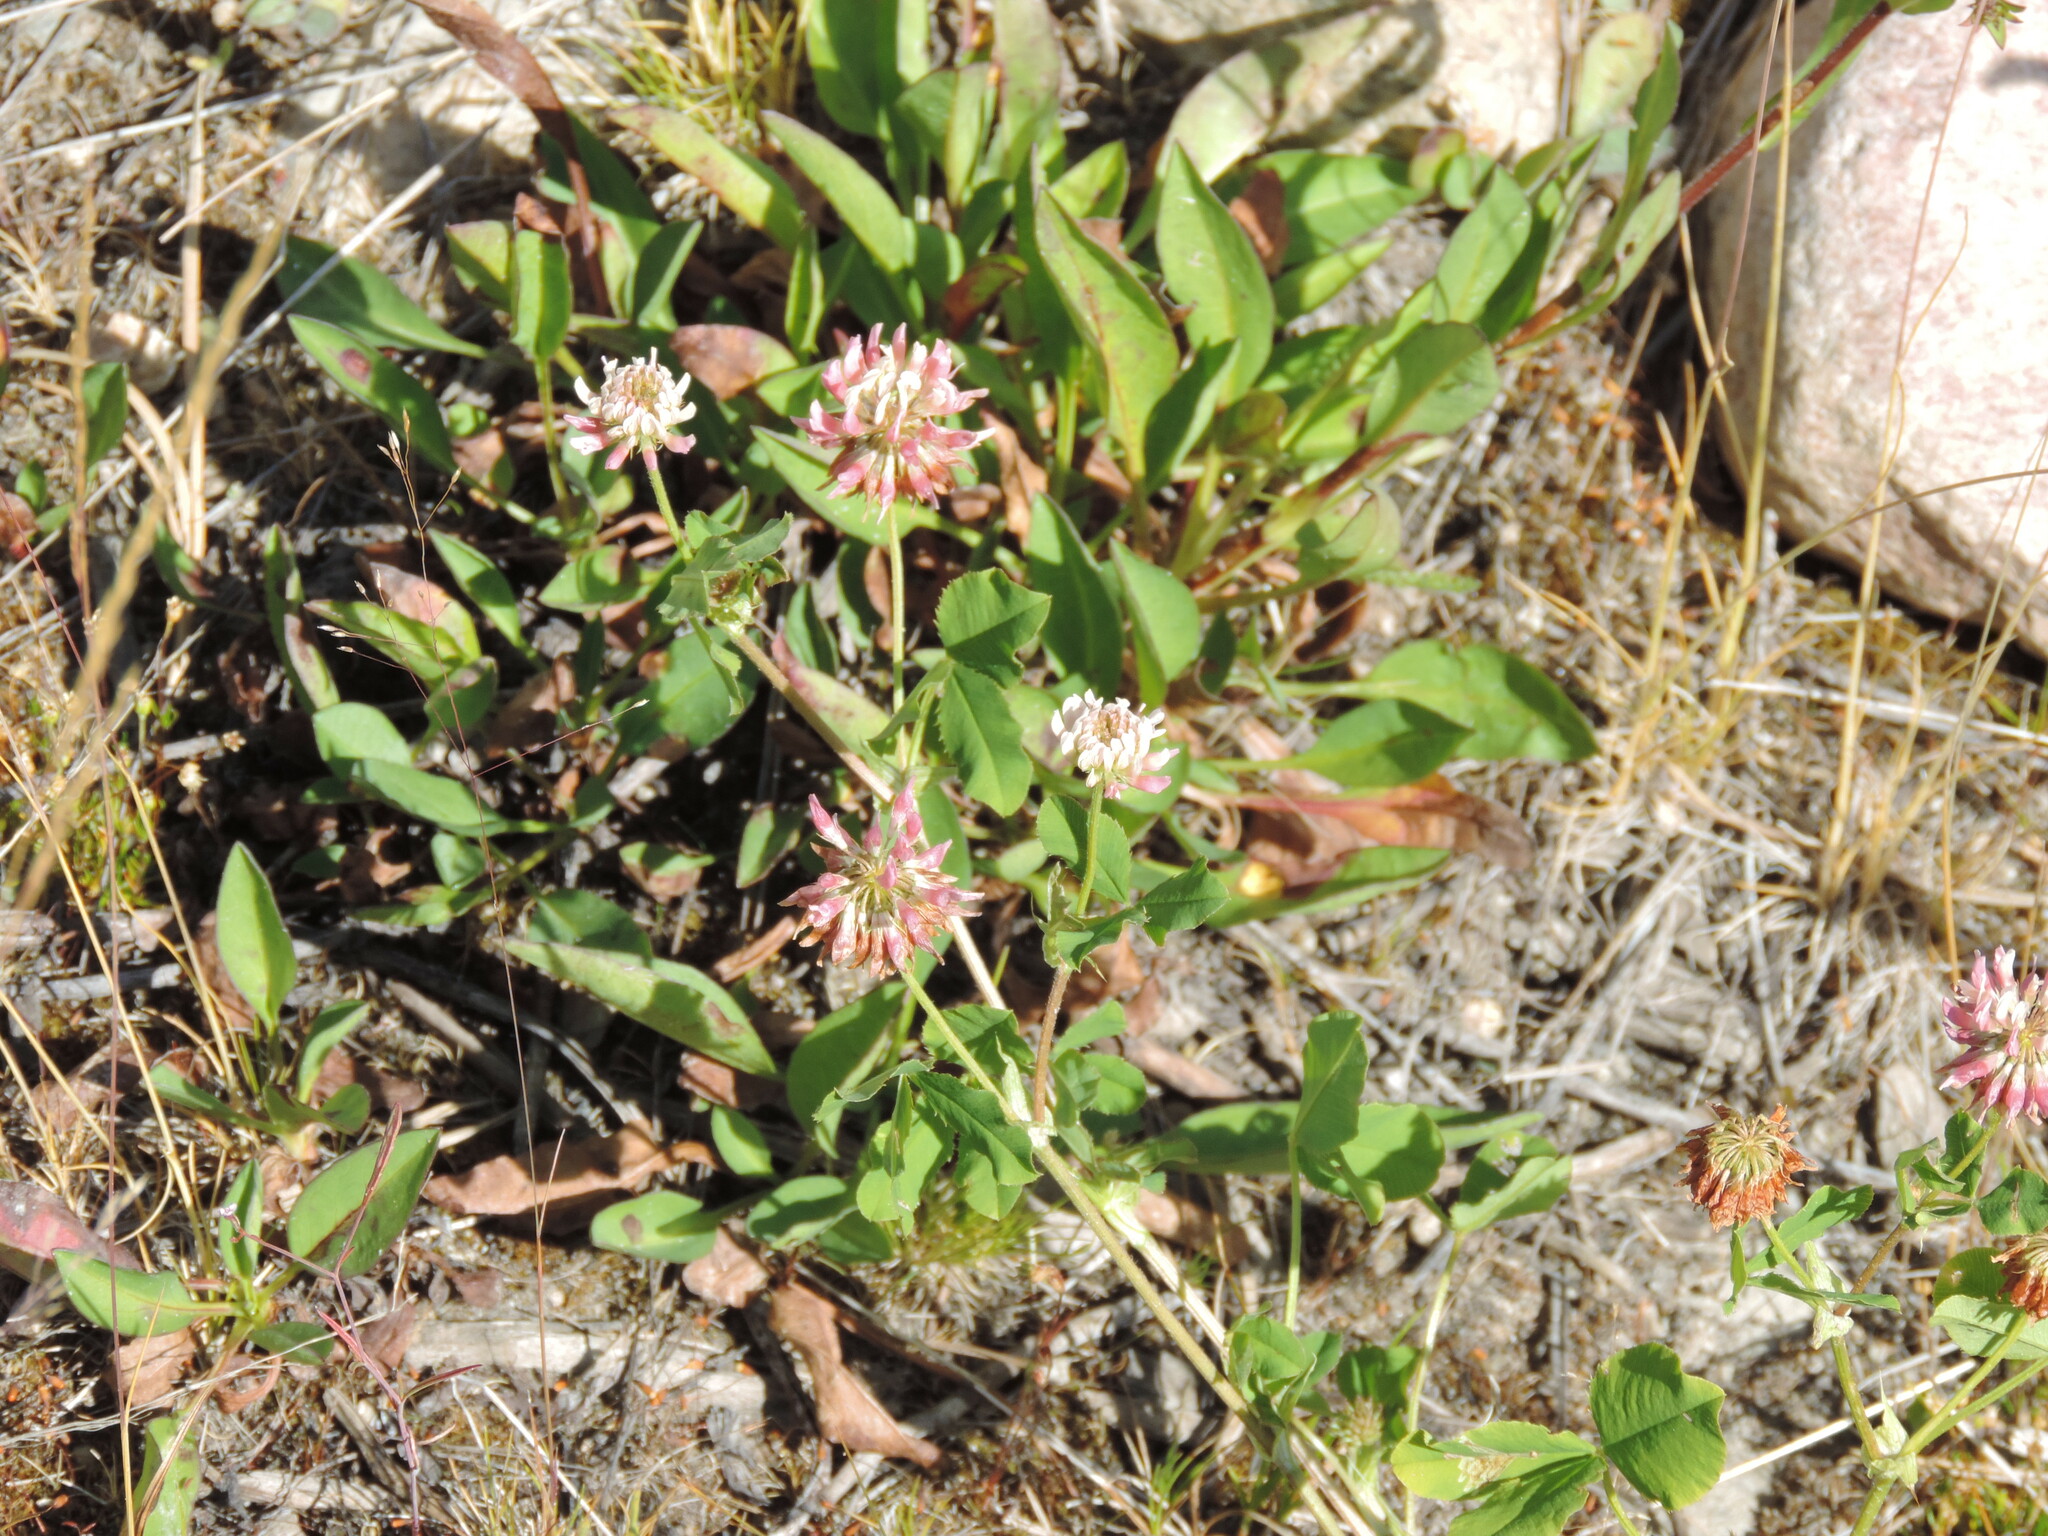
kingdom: Plantae
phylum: Tracheophyta
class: Magnoliopsida
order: Fabales
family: Fabaceae
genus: Trifolium
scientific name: Trifolium hybridum
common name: Alsike clover
